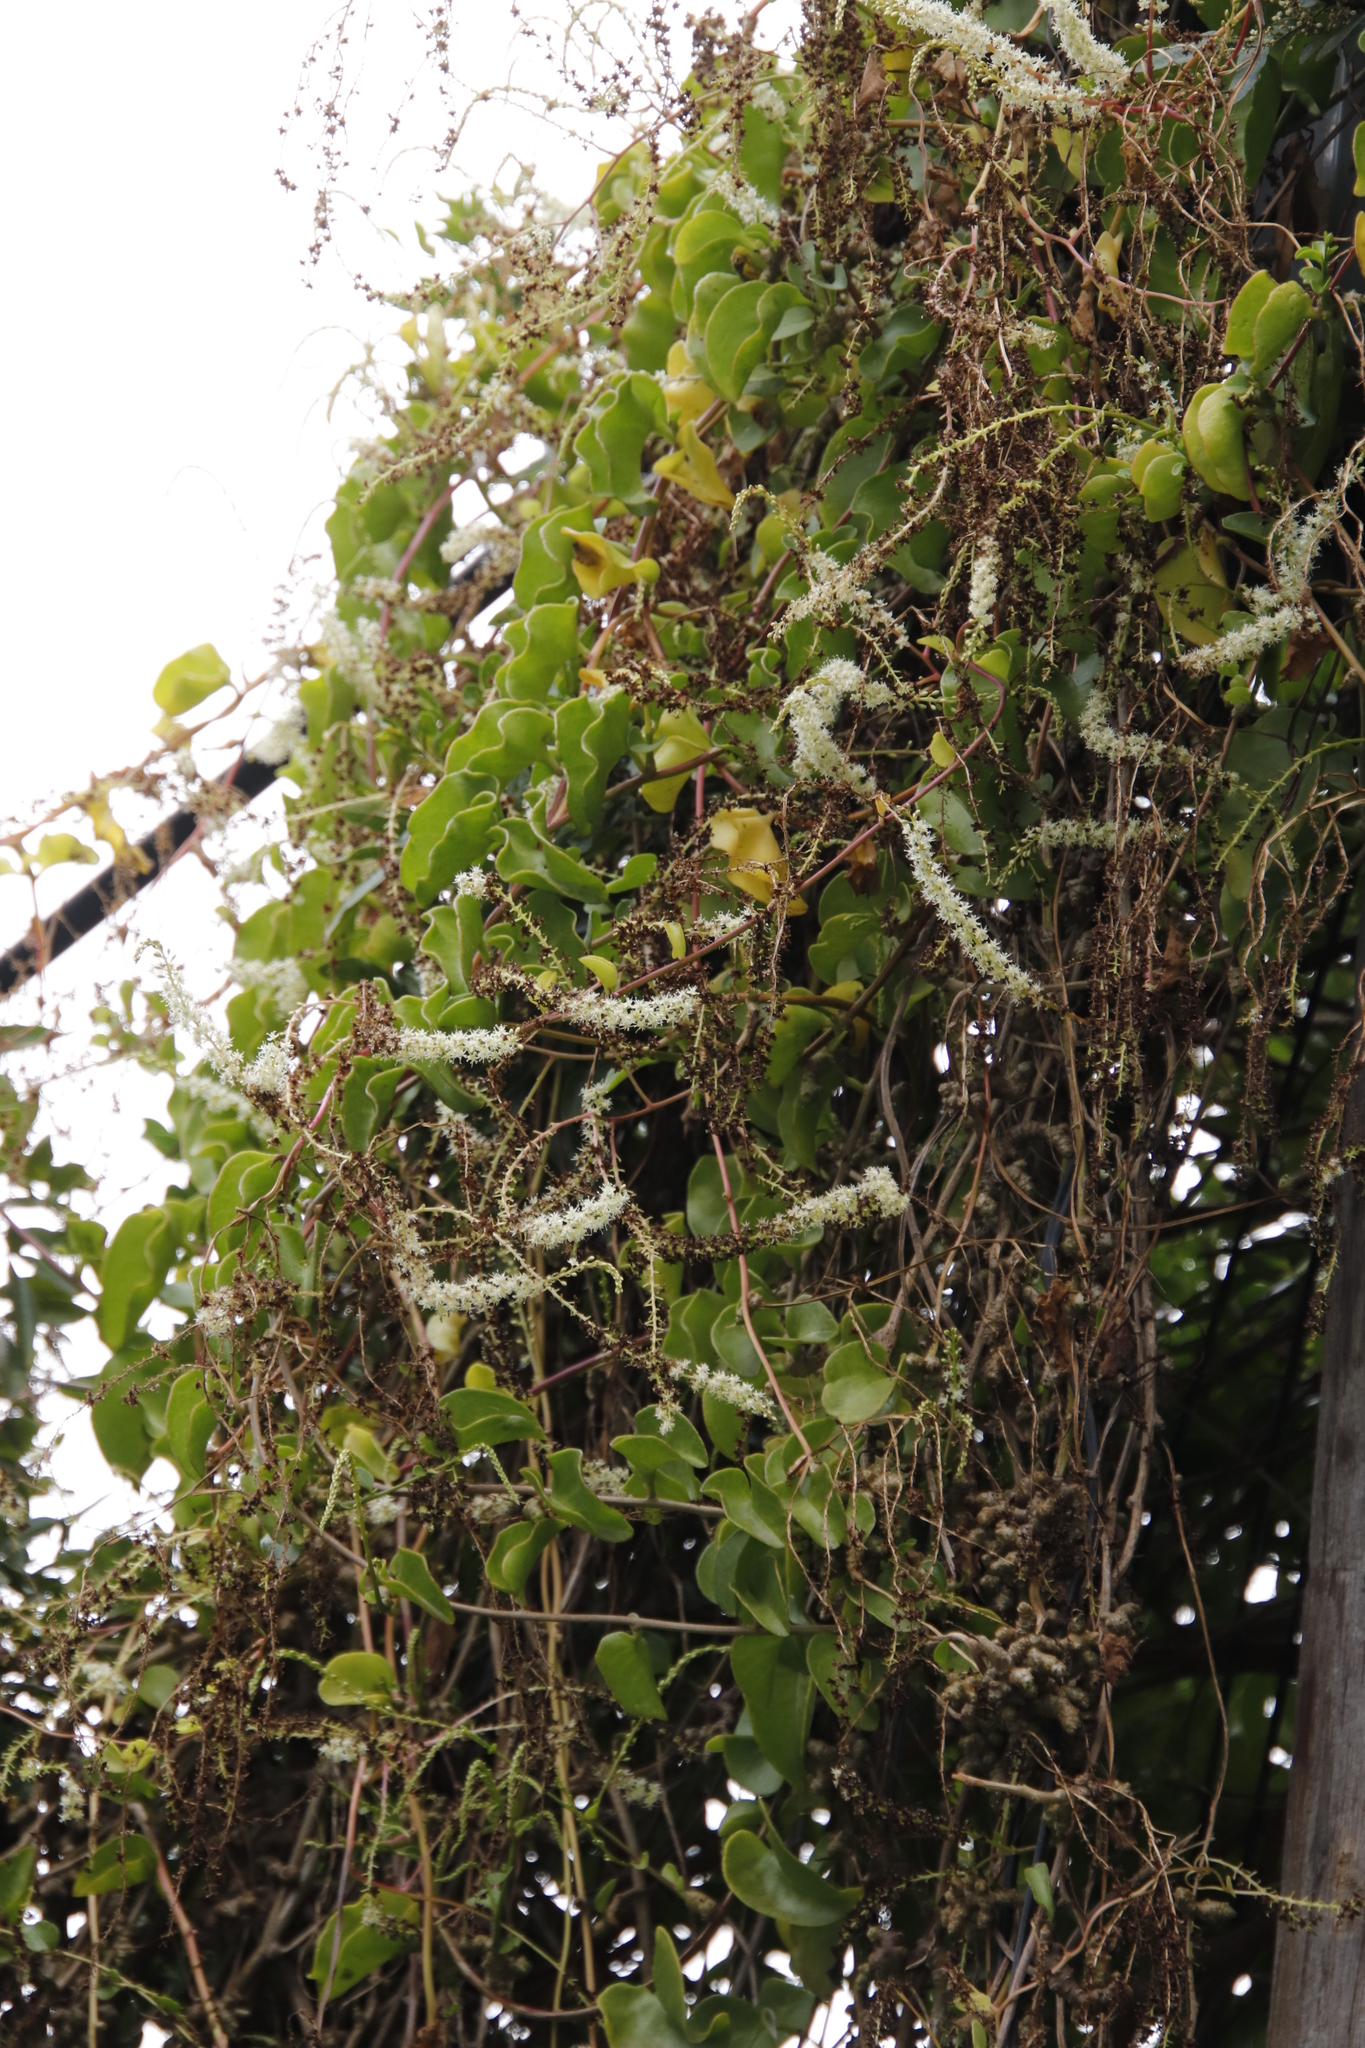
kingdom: Plantae
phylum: Tracheophyta
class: Magnoliopsida
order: Caryophyllales
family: Basellaceae
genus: Anredera
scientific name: Anredera cordifolia
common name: Heartleaf madeiravine
